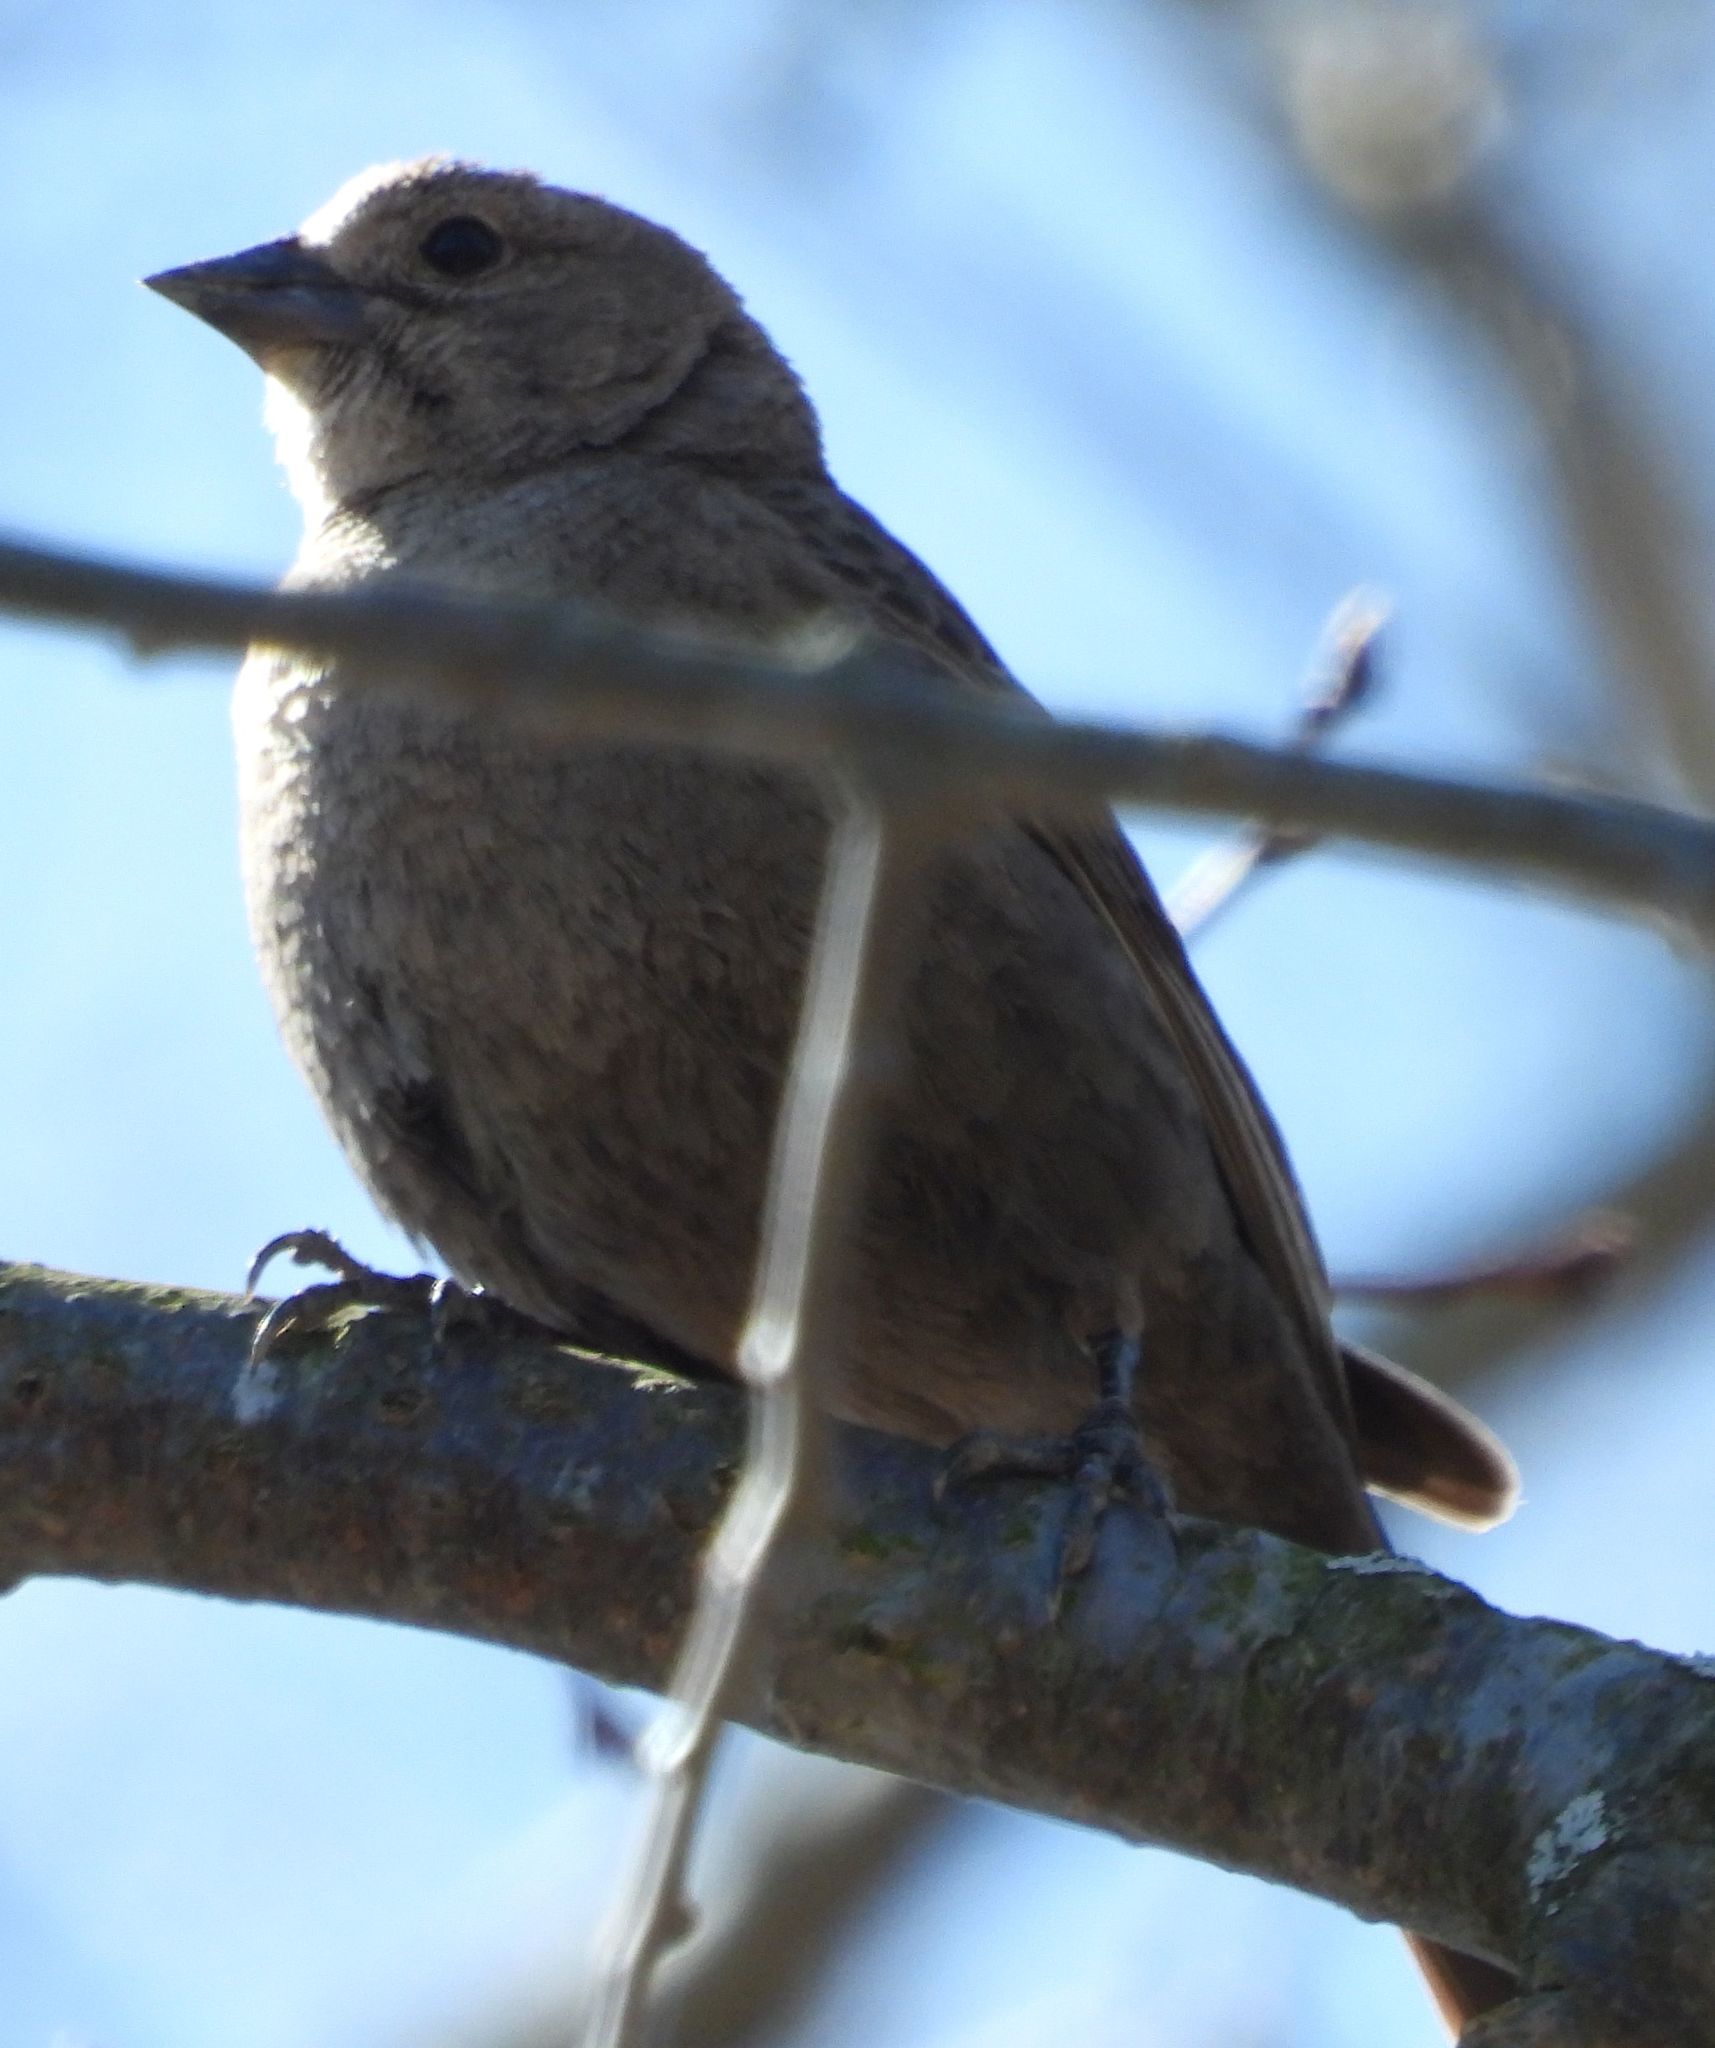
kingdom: Animalia
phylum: Chordata
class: Aves
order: Passeriformes
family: Icteridae
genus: Molothrus
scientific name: Molothrus ater
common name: Brown-headed cowbird
